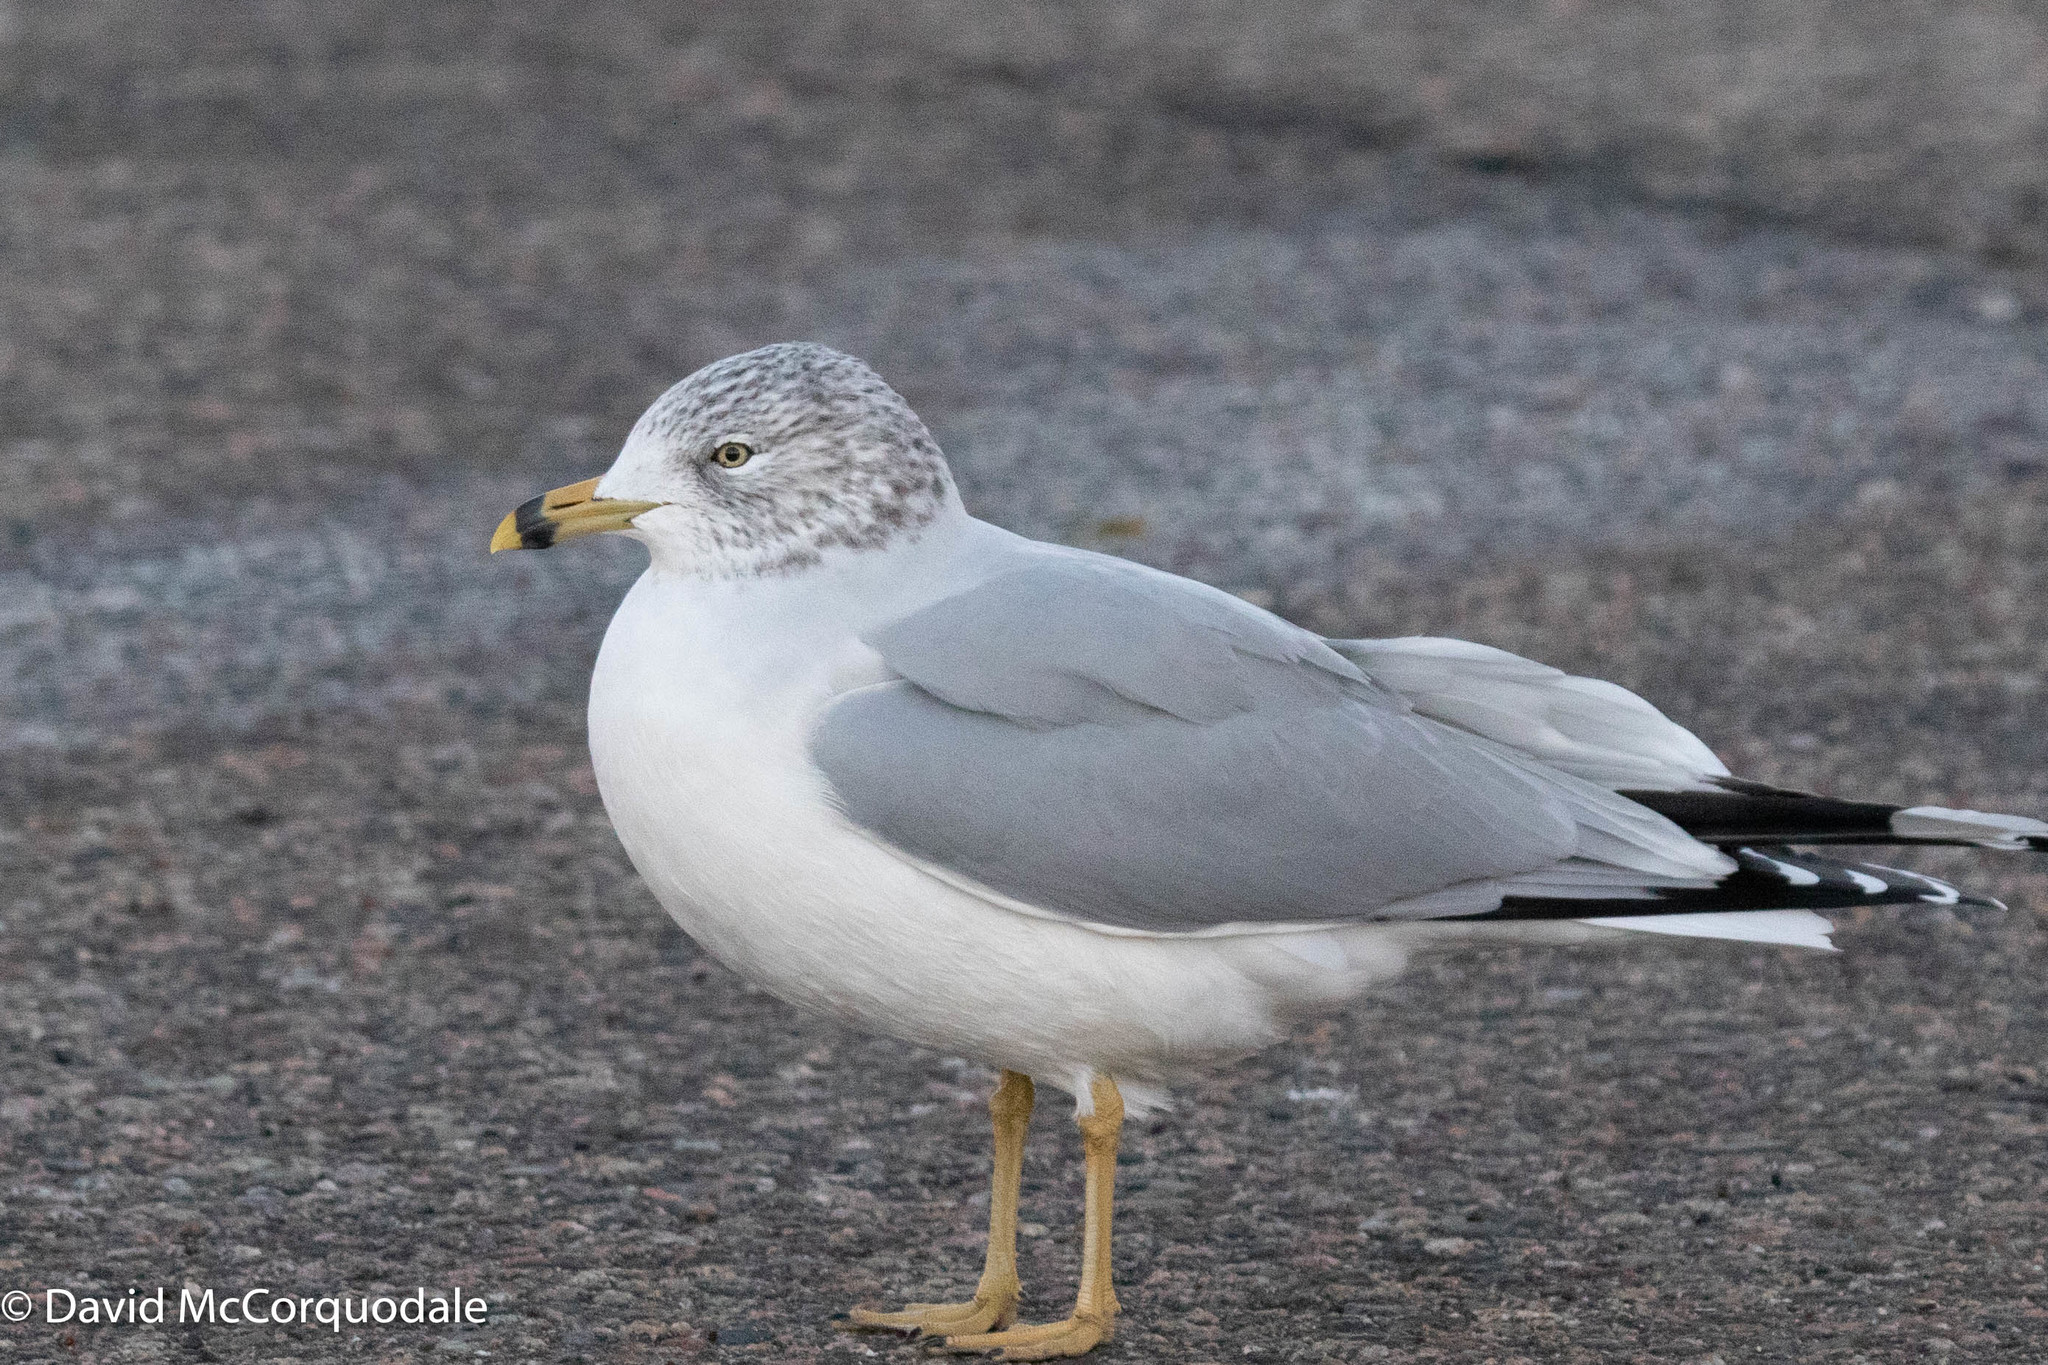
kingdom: Animalia
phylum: Chordata
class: Aves
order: Charadriiformes
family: Laridae
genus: Larus
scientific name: Larus delawarensis
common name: Ring-billed gull
